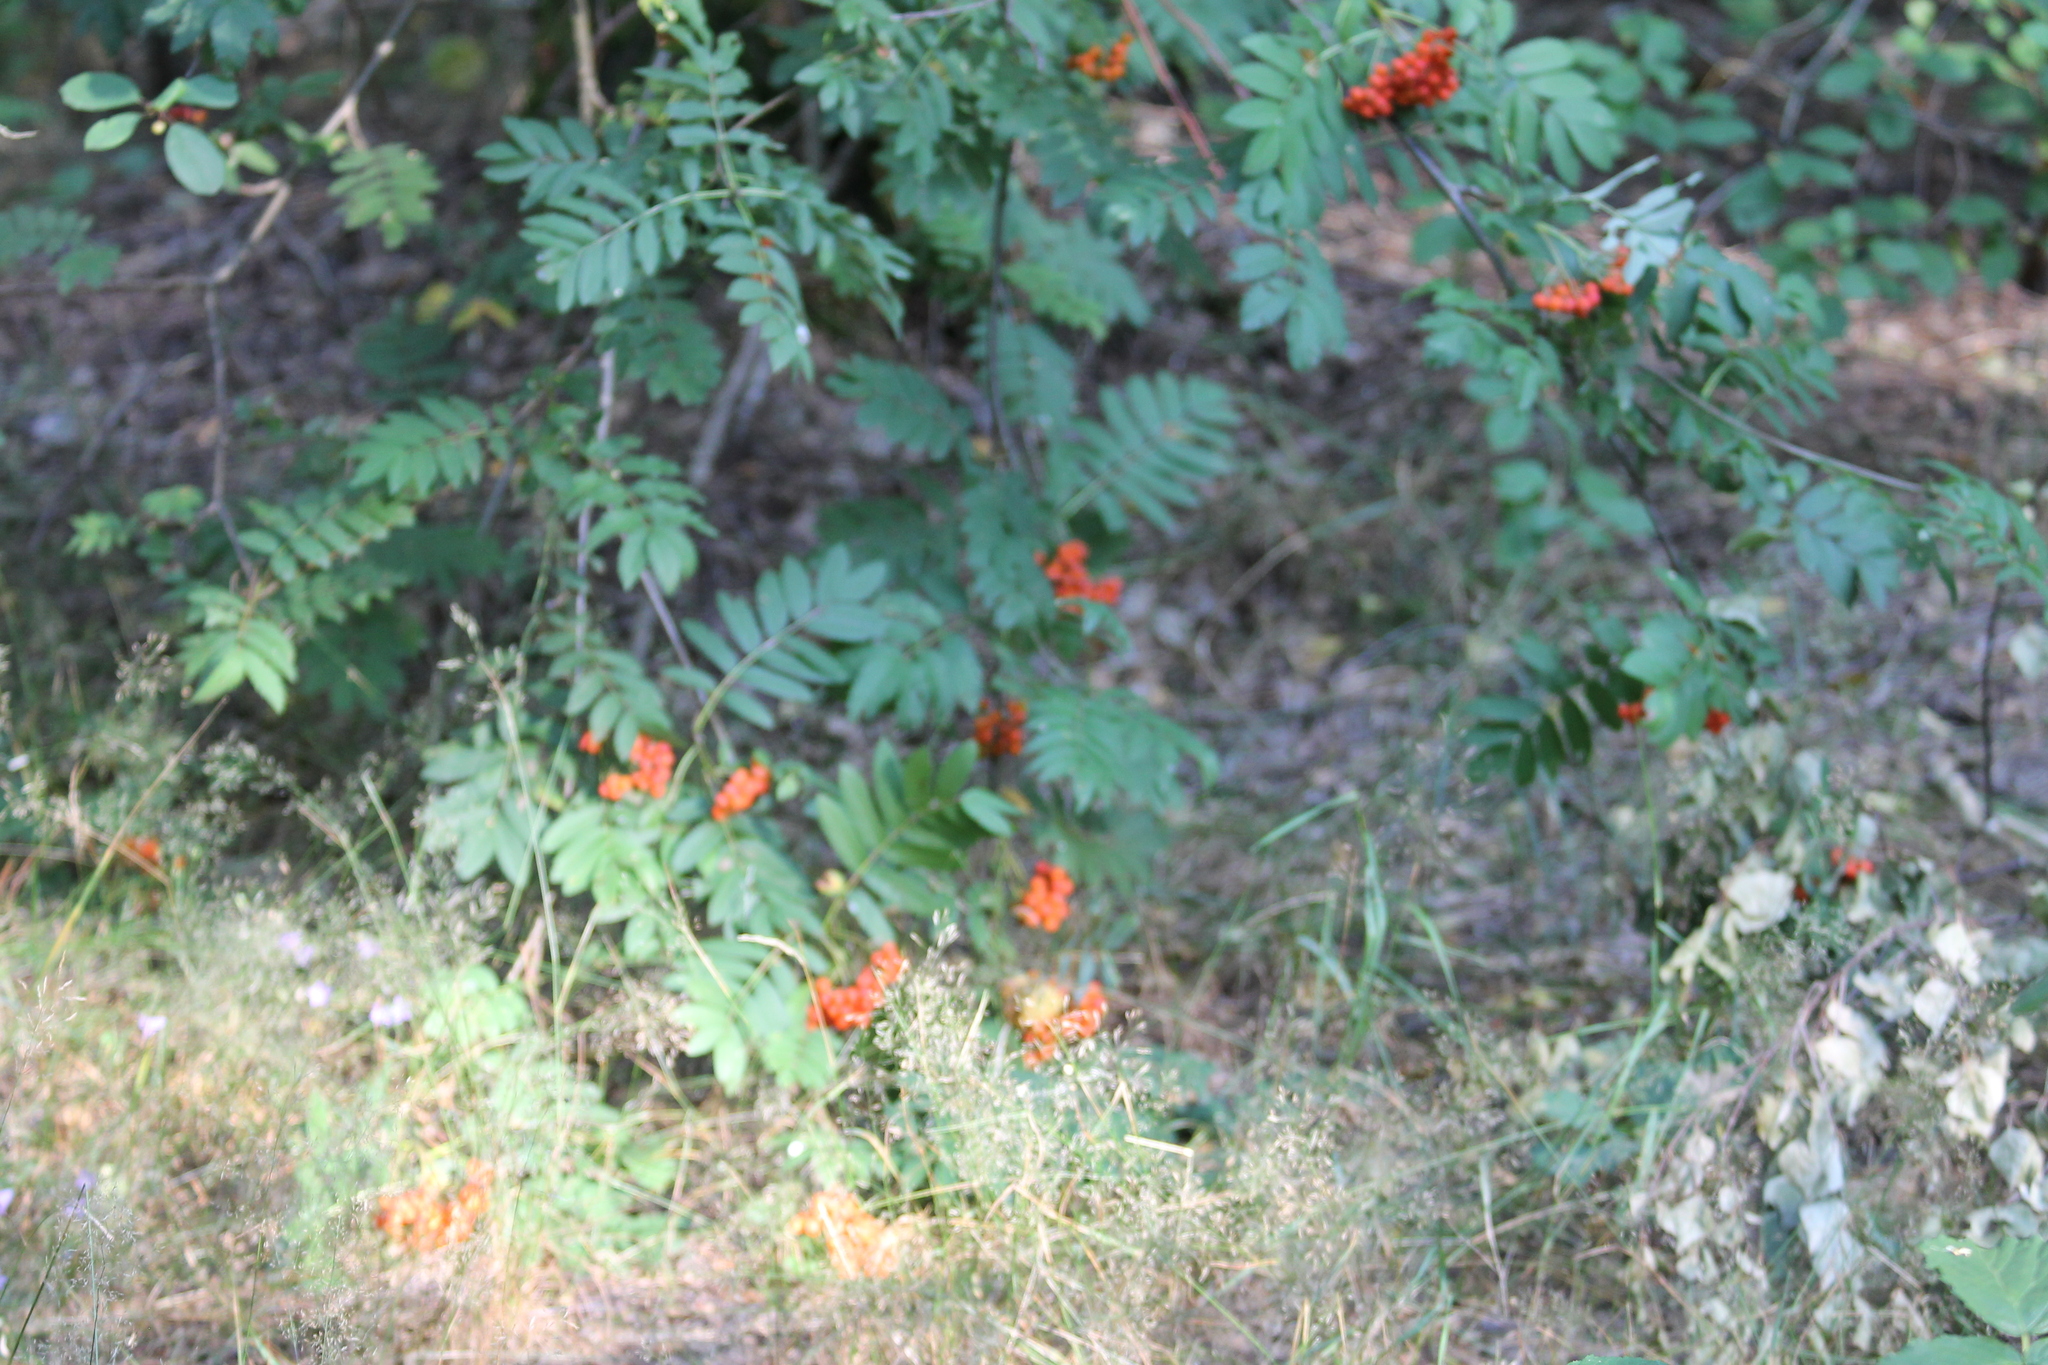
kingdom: Plantae
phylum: Tracheophyta
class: Magnoliopsida
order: Rosales
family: Rosaceae
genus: Sorbus
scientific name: Sorbus aucuparia
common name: Rowan
